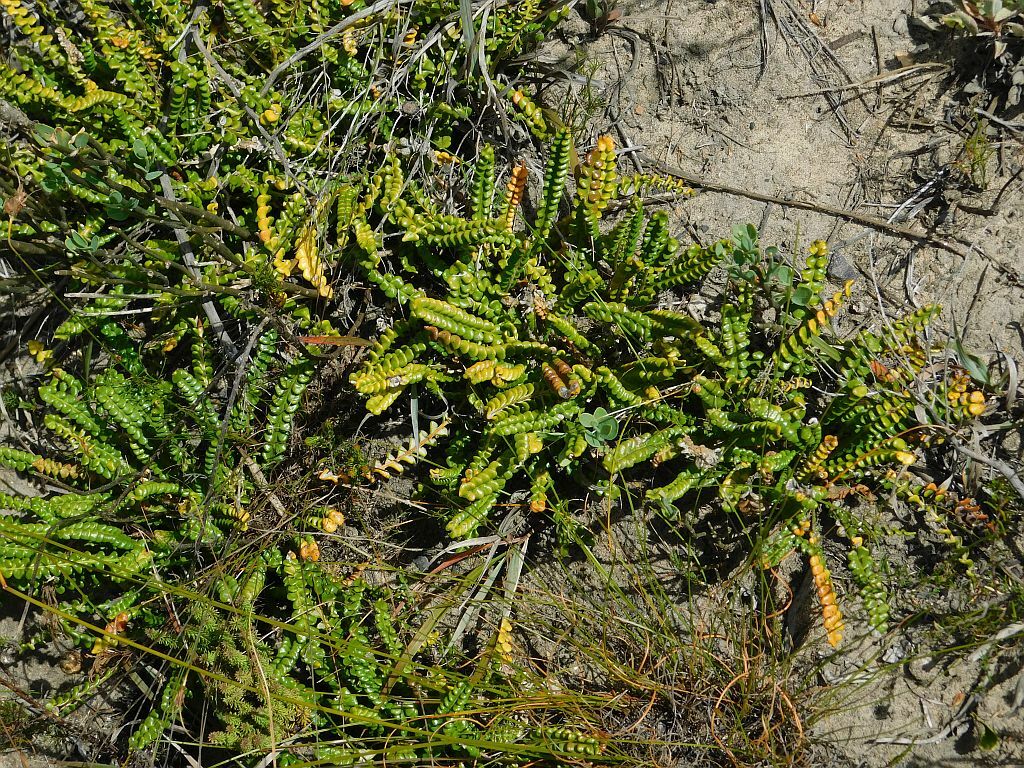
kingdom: Plantae
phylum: Tracheophyta
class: Magnoliopsida
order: Asterales
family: Asteraceae
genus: Gerbera
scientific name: Gerbera linnaei
